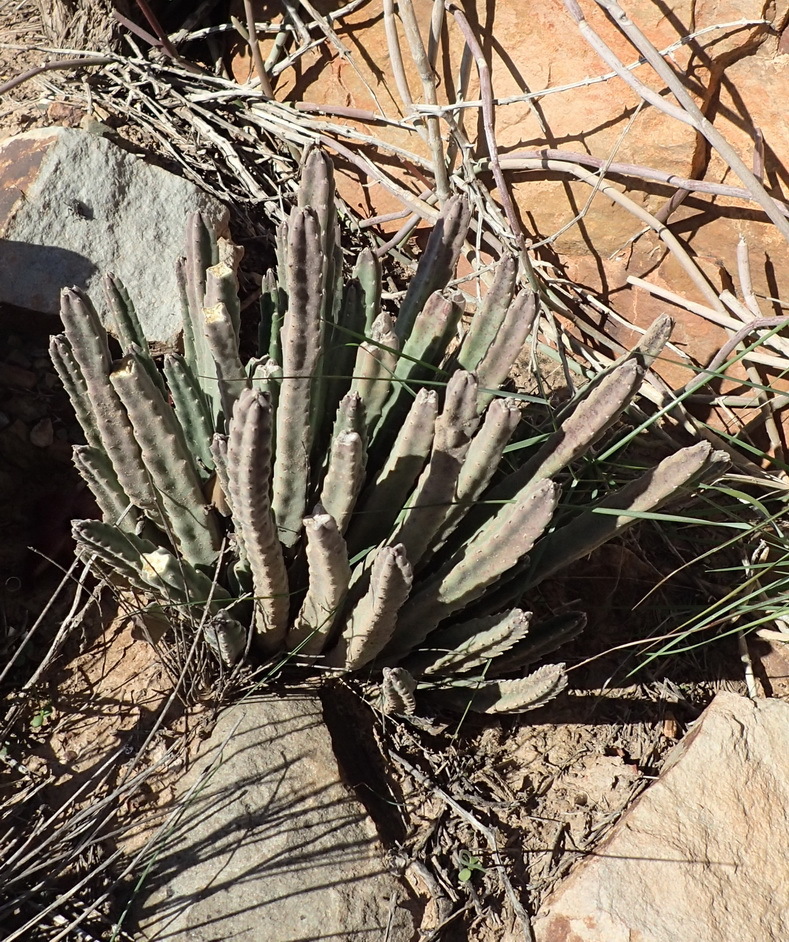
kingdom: Plantae
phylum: Tracheophyta
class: Magnoliopsida
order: Gentianales
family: Apocynaceae
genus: Ceropegia
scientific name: Ceropegia pulvinata
